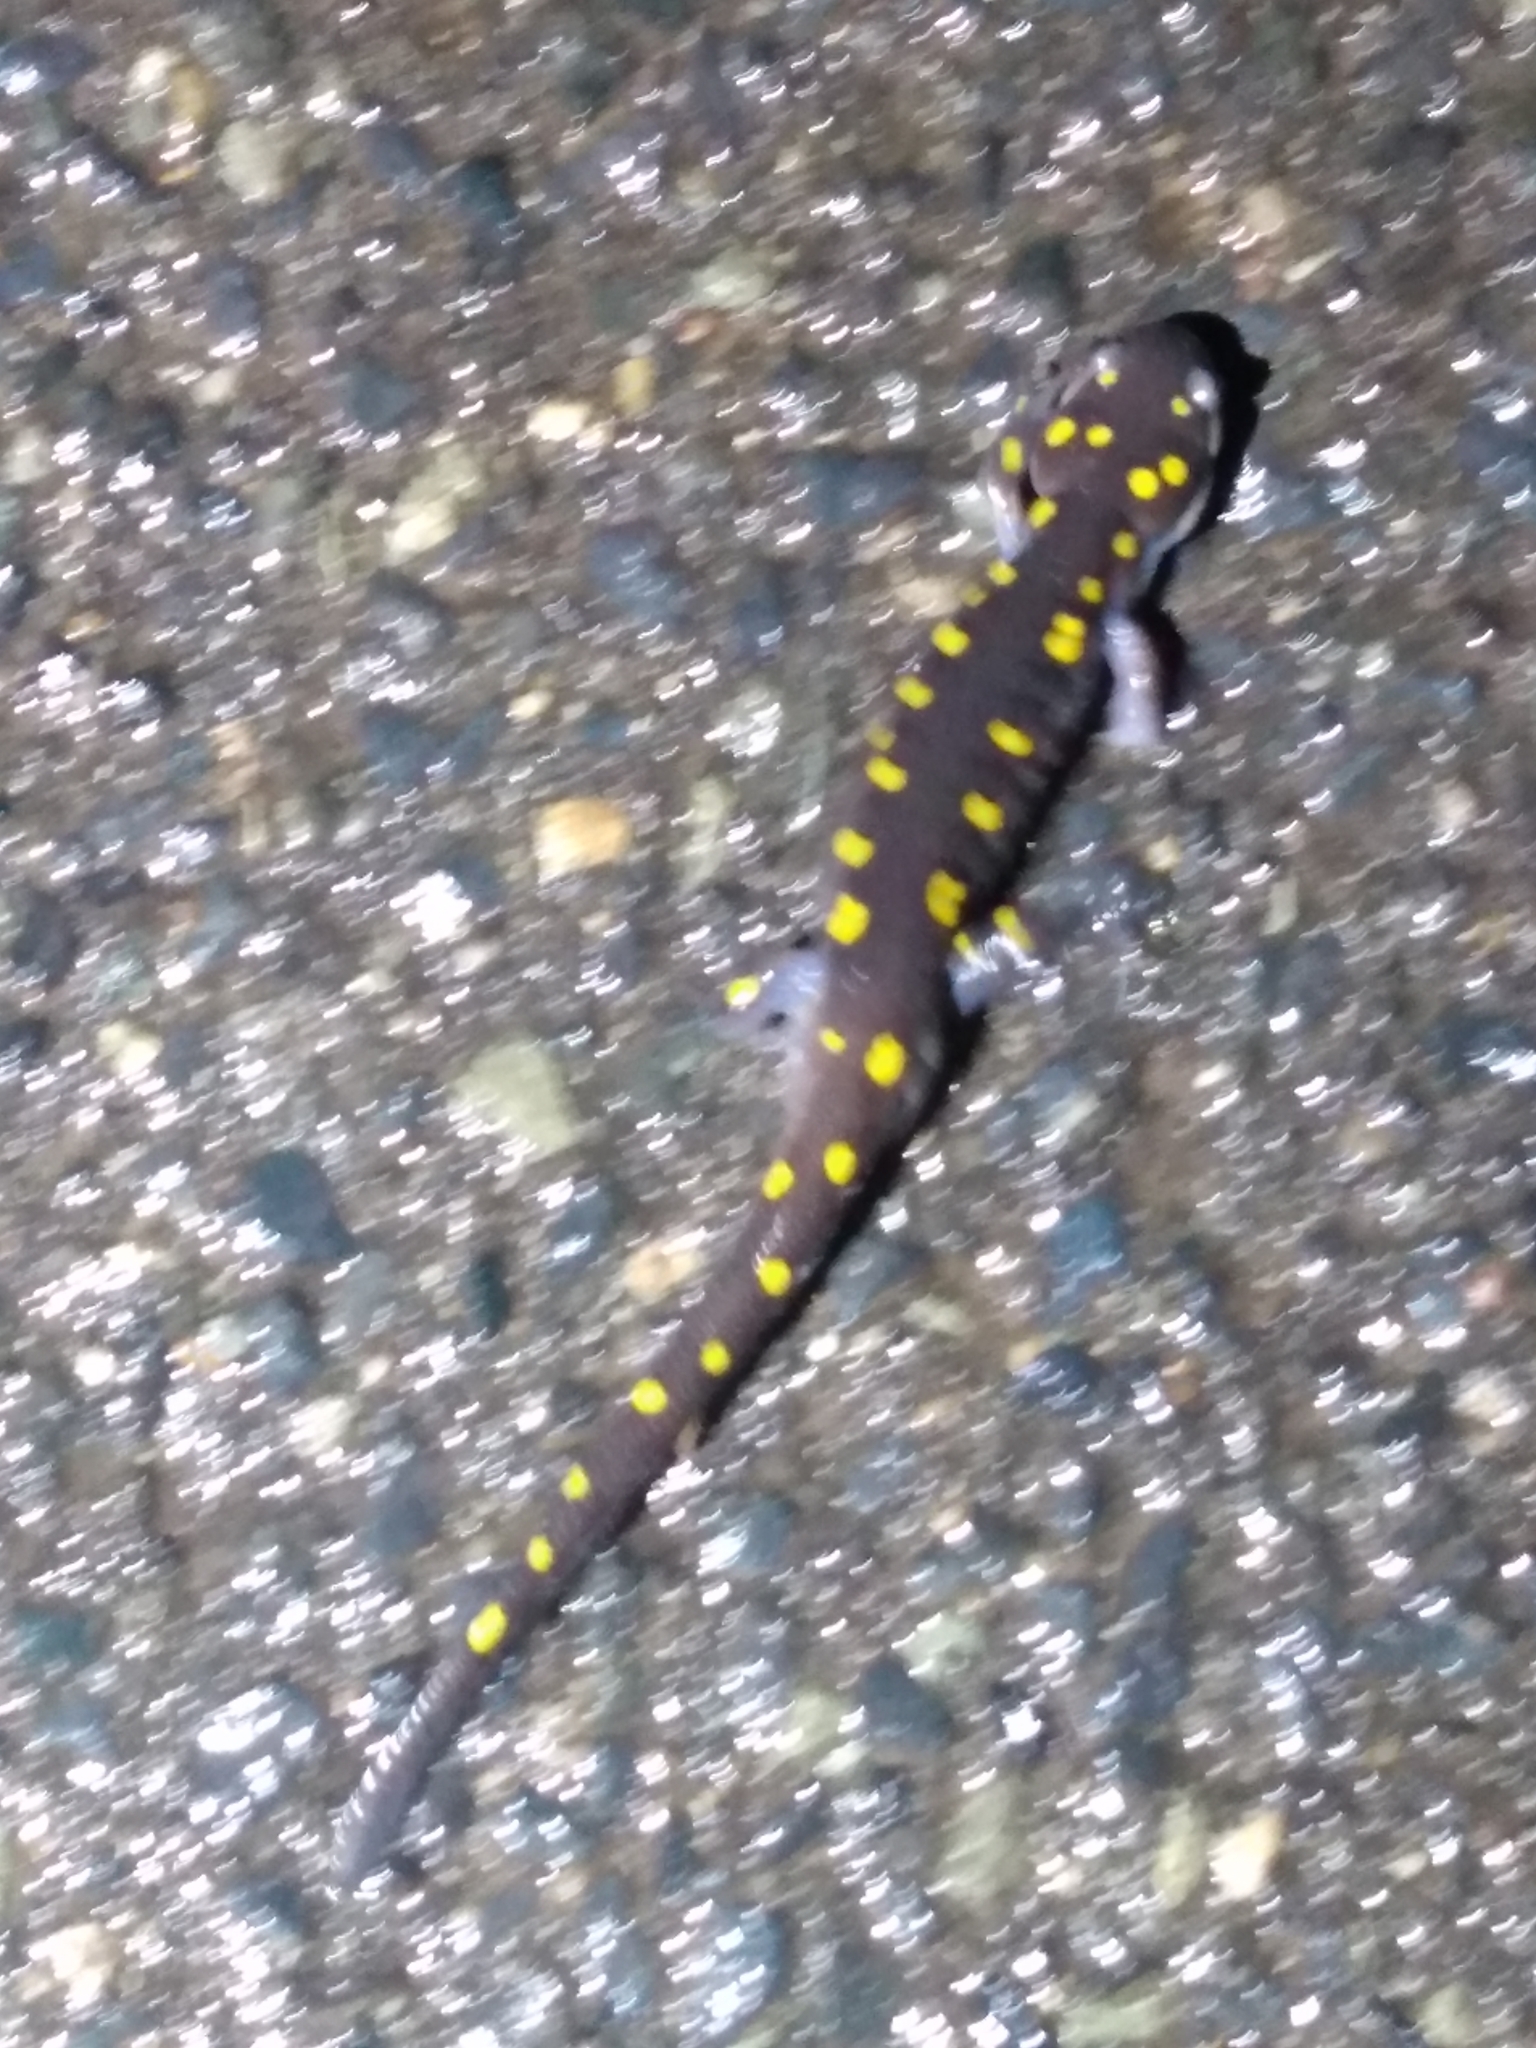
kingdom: Animalia
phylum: Chordata
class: Amphibia
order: Caudata
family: Ambystomatidae
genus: Ambystoma
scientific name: Ambystoma maculatum
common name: Spotted salamander
